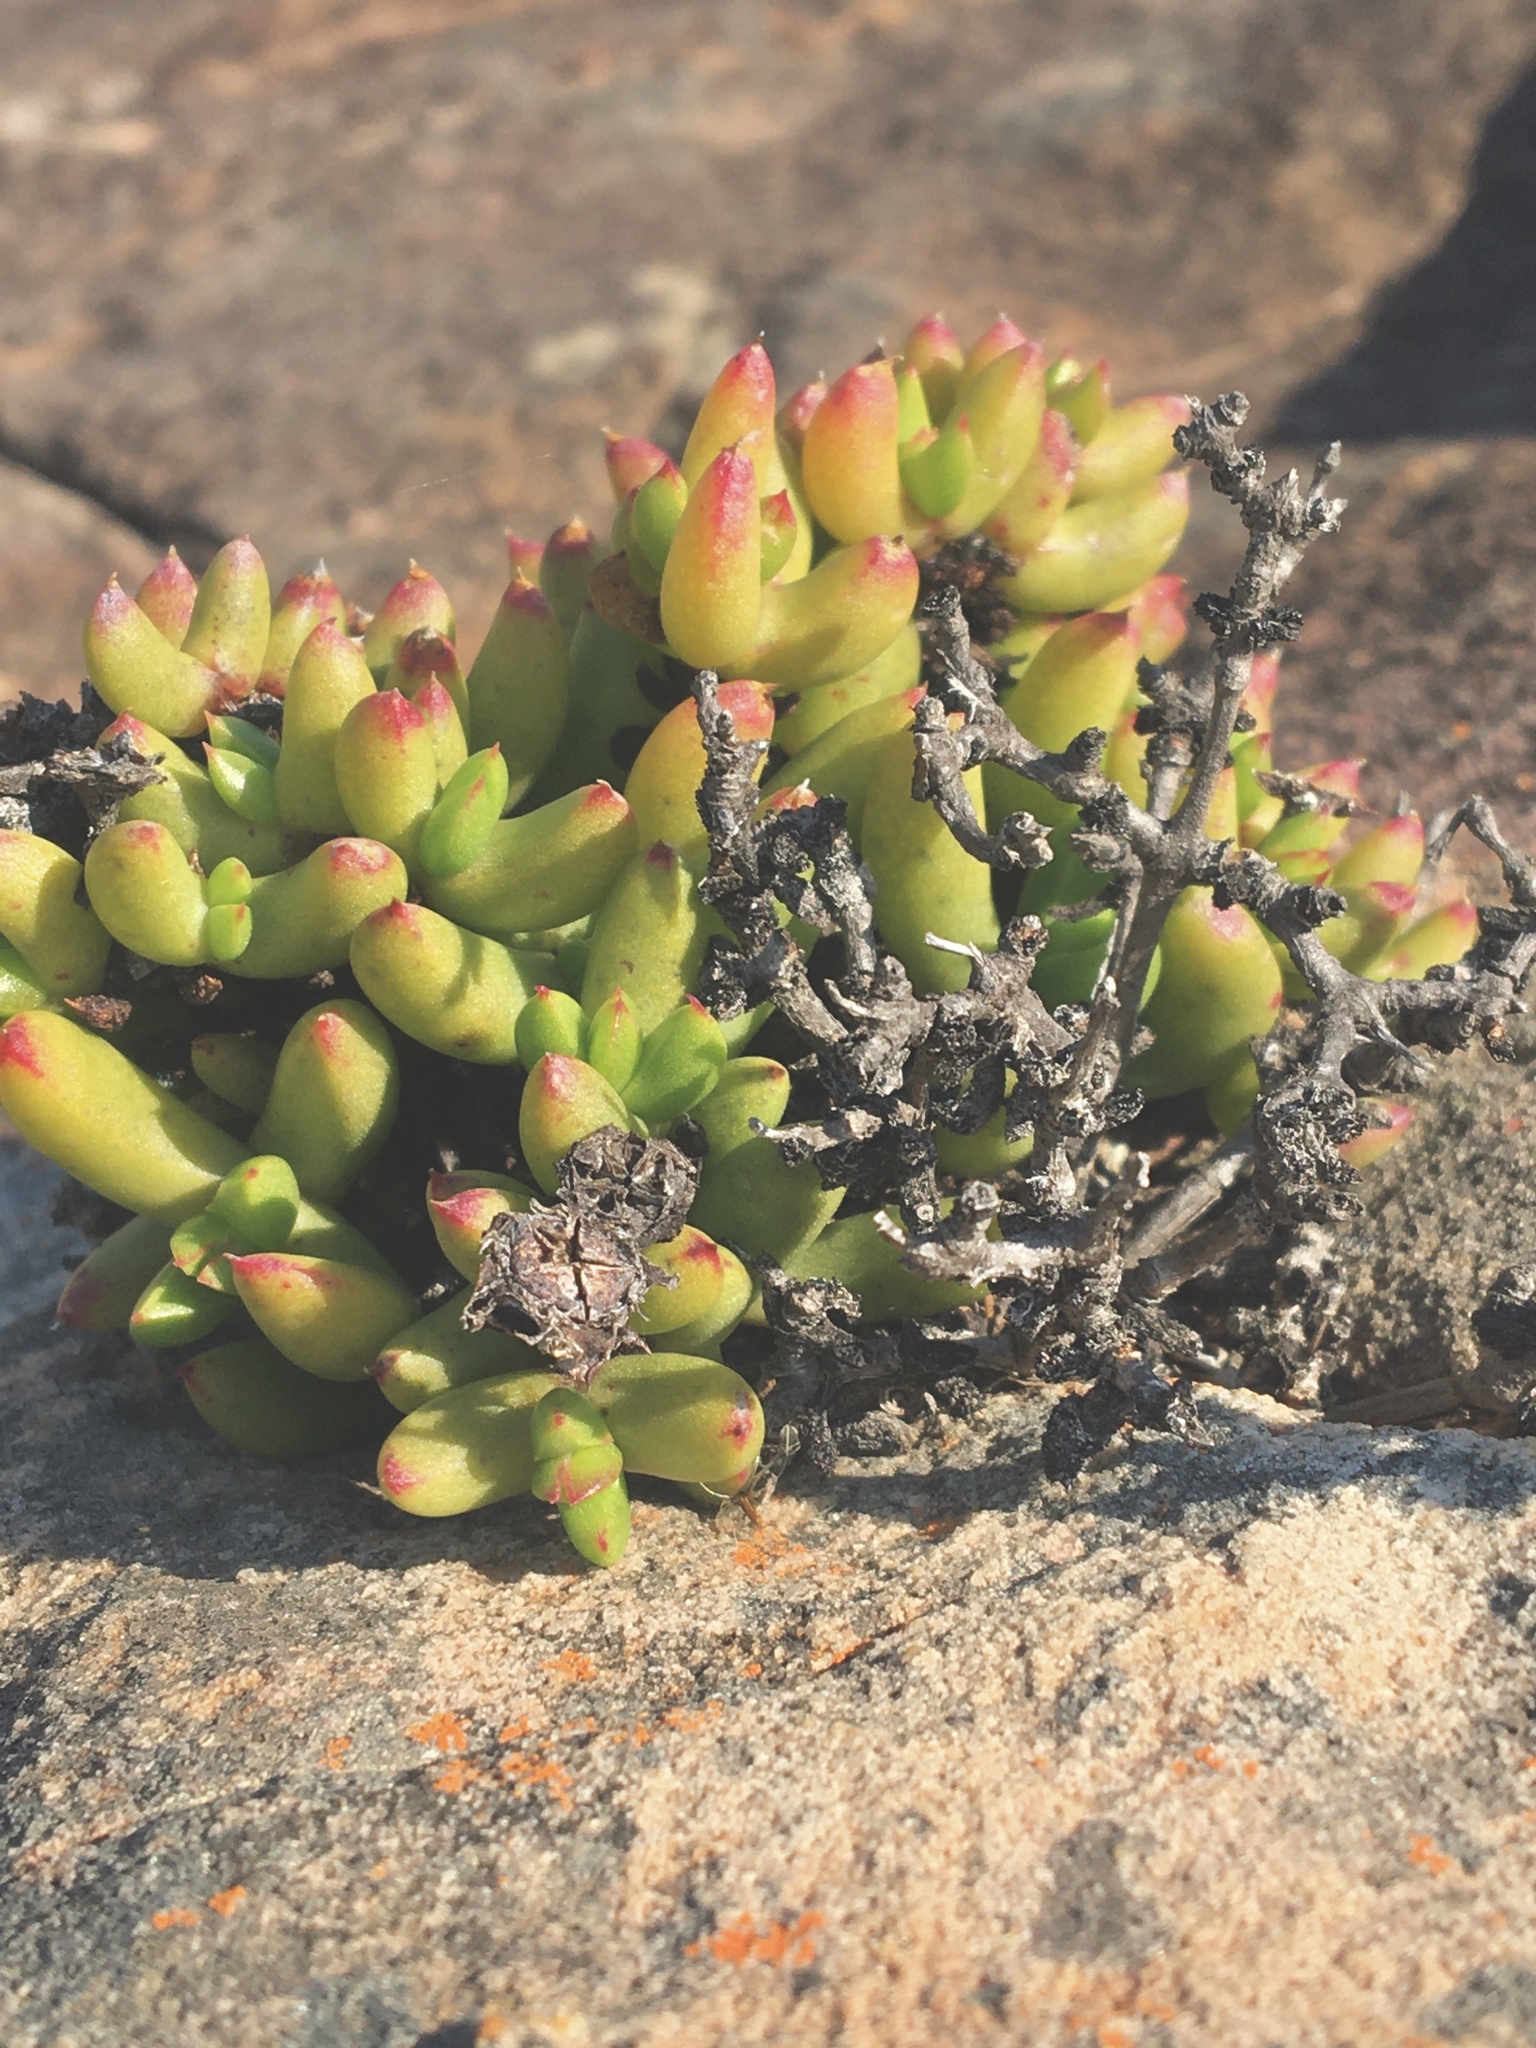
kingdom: Plantae
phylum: Tracheophyta
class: Magnoliopsida
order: Caryophyllales
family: Aizoaceae
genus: Esterhuysenia
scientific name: Esterhuysenia drepanophylla
